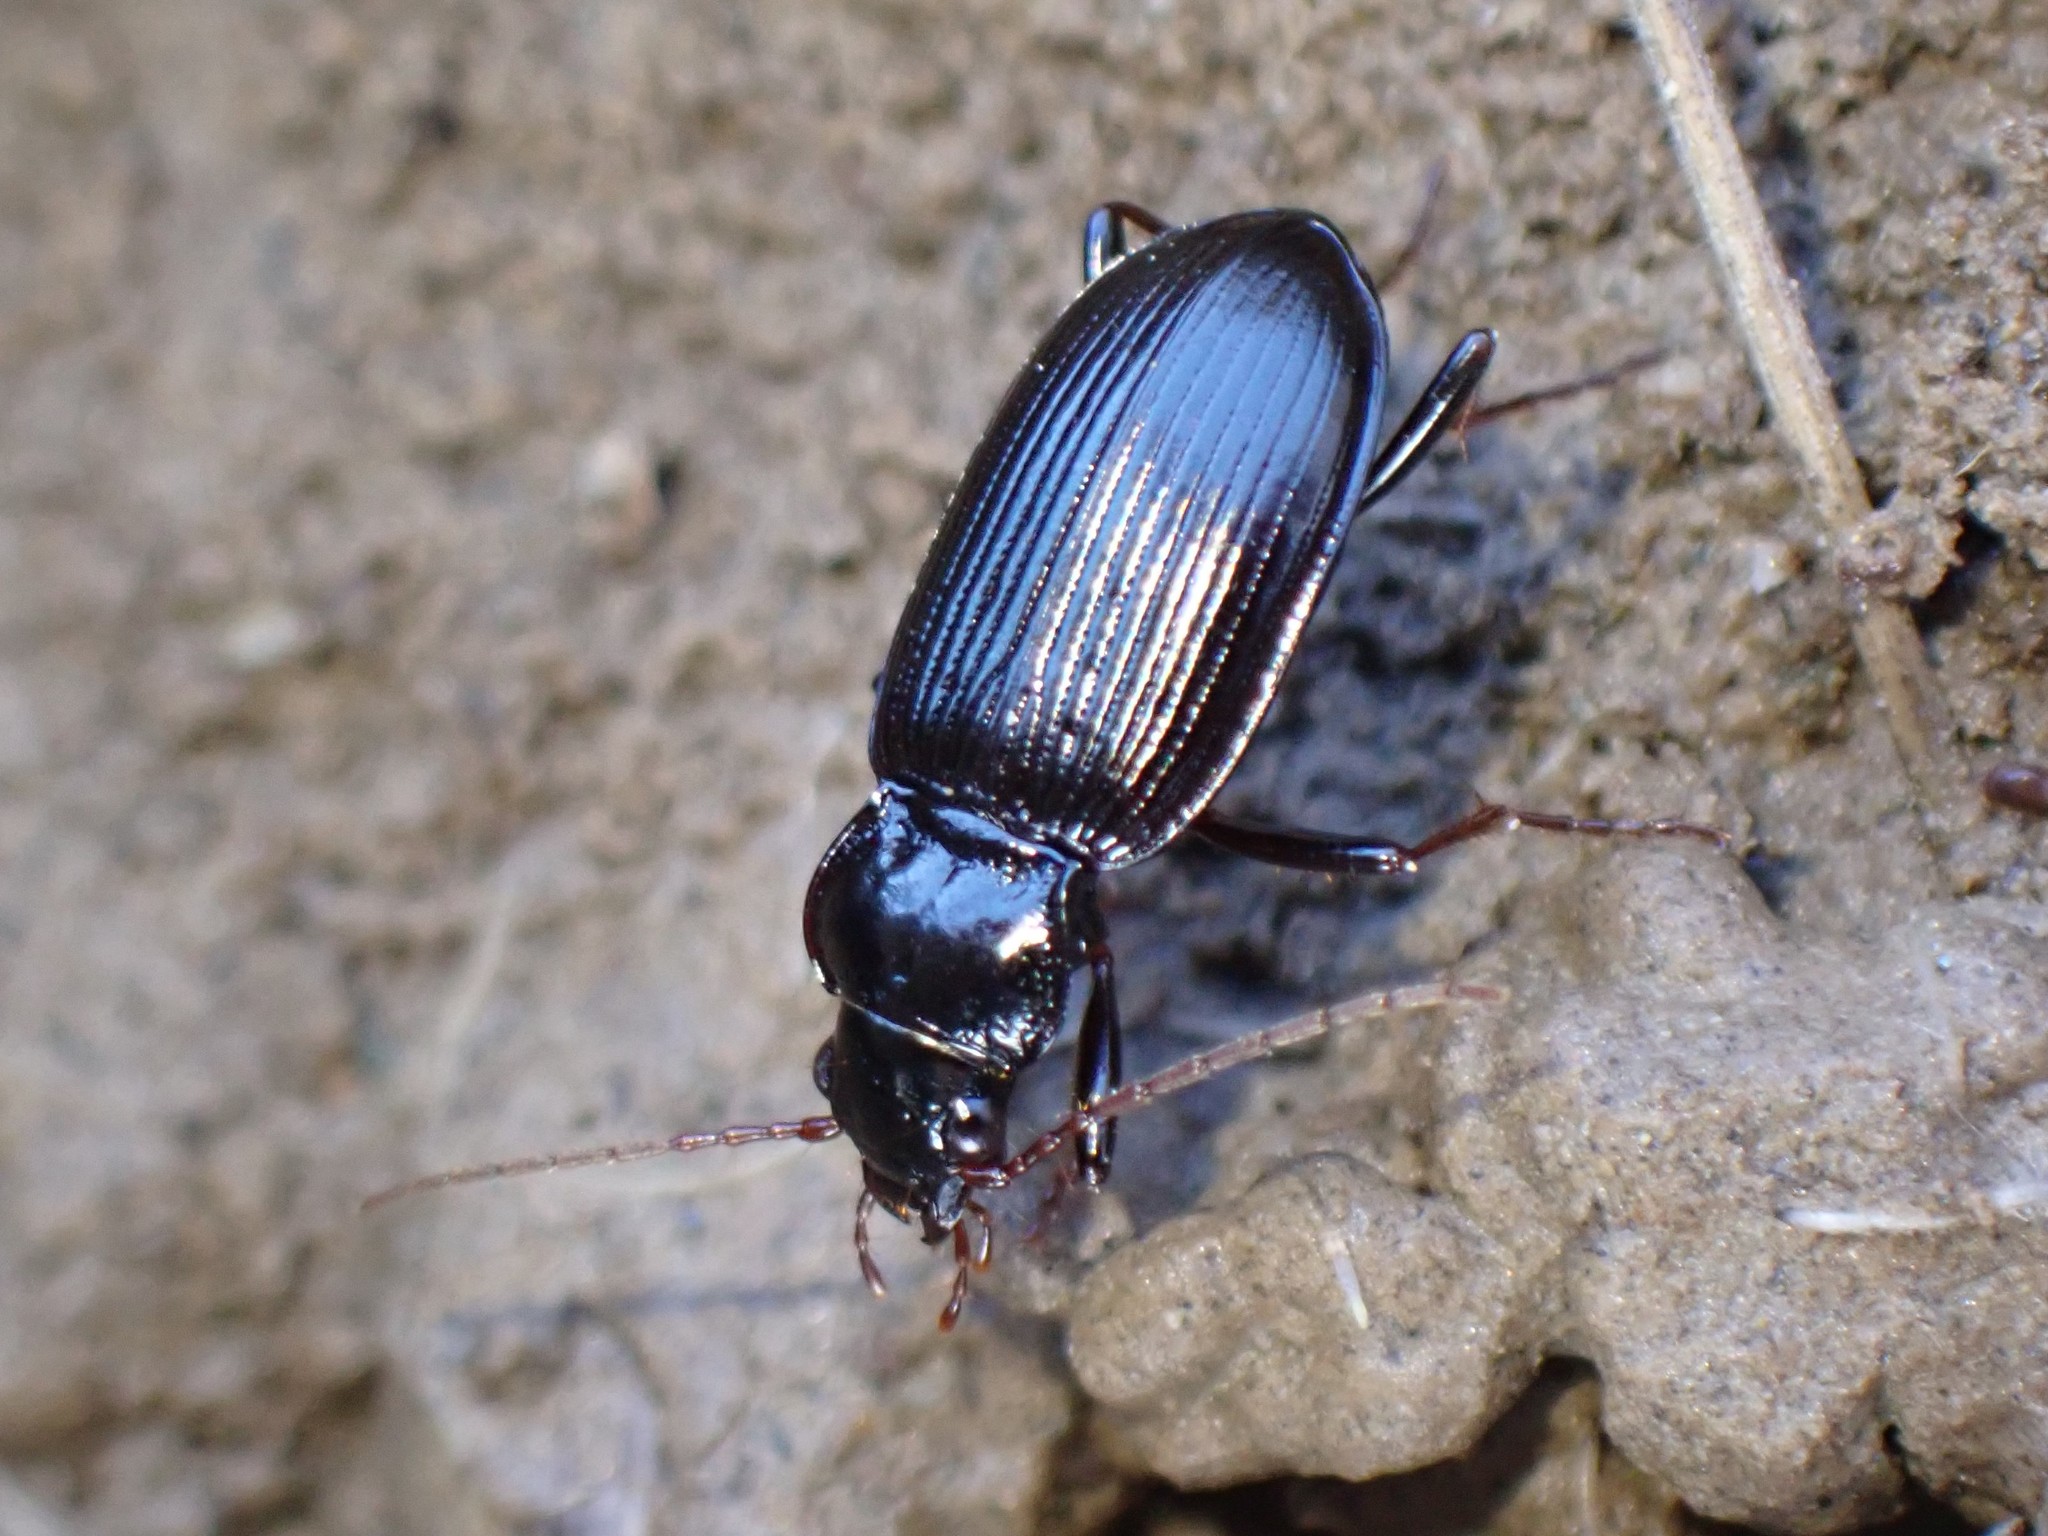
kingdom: Animalia
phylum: Arthropoda
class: Insecta
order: Coleoptera
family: Carabidae
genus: Nebria
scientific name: Nebria brevicollis
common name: Short-necked gazelle beetle
